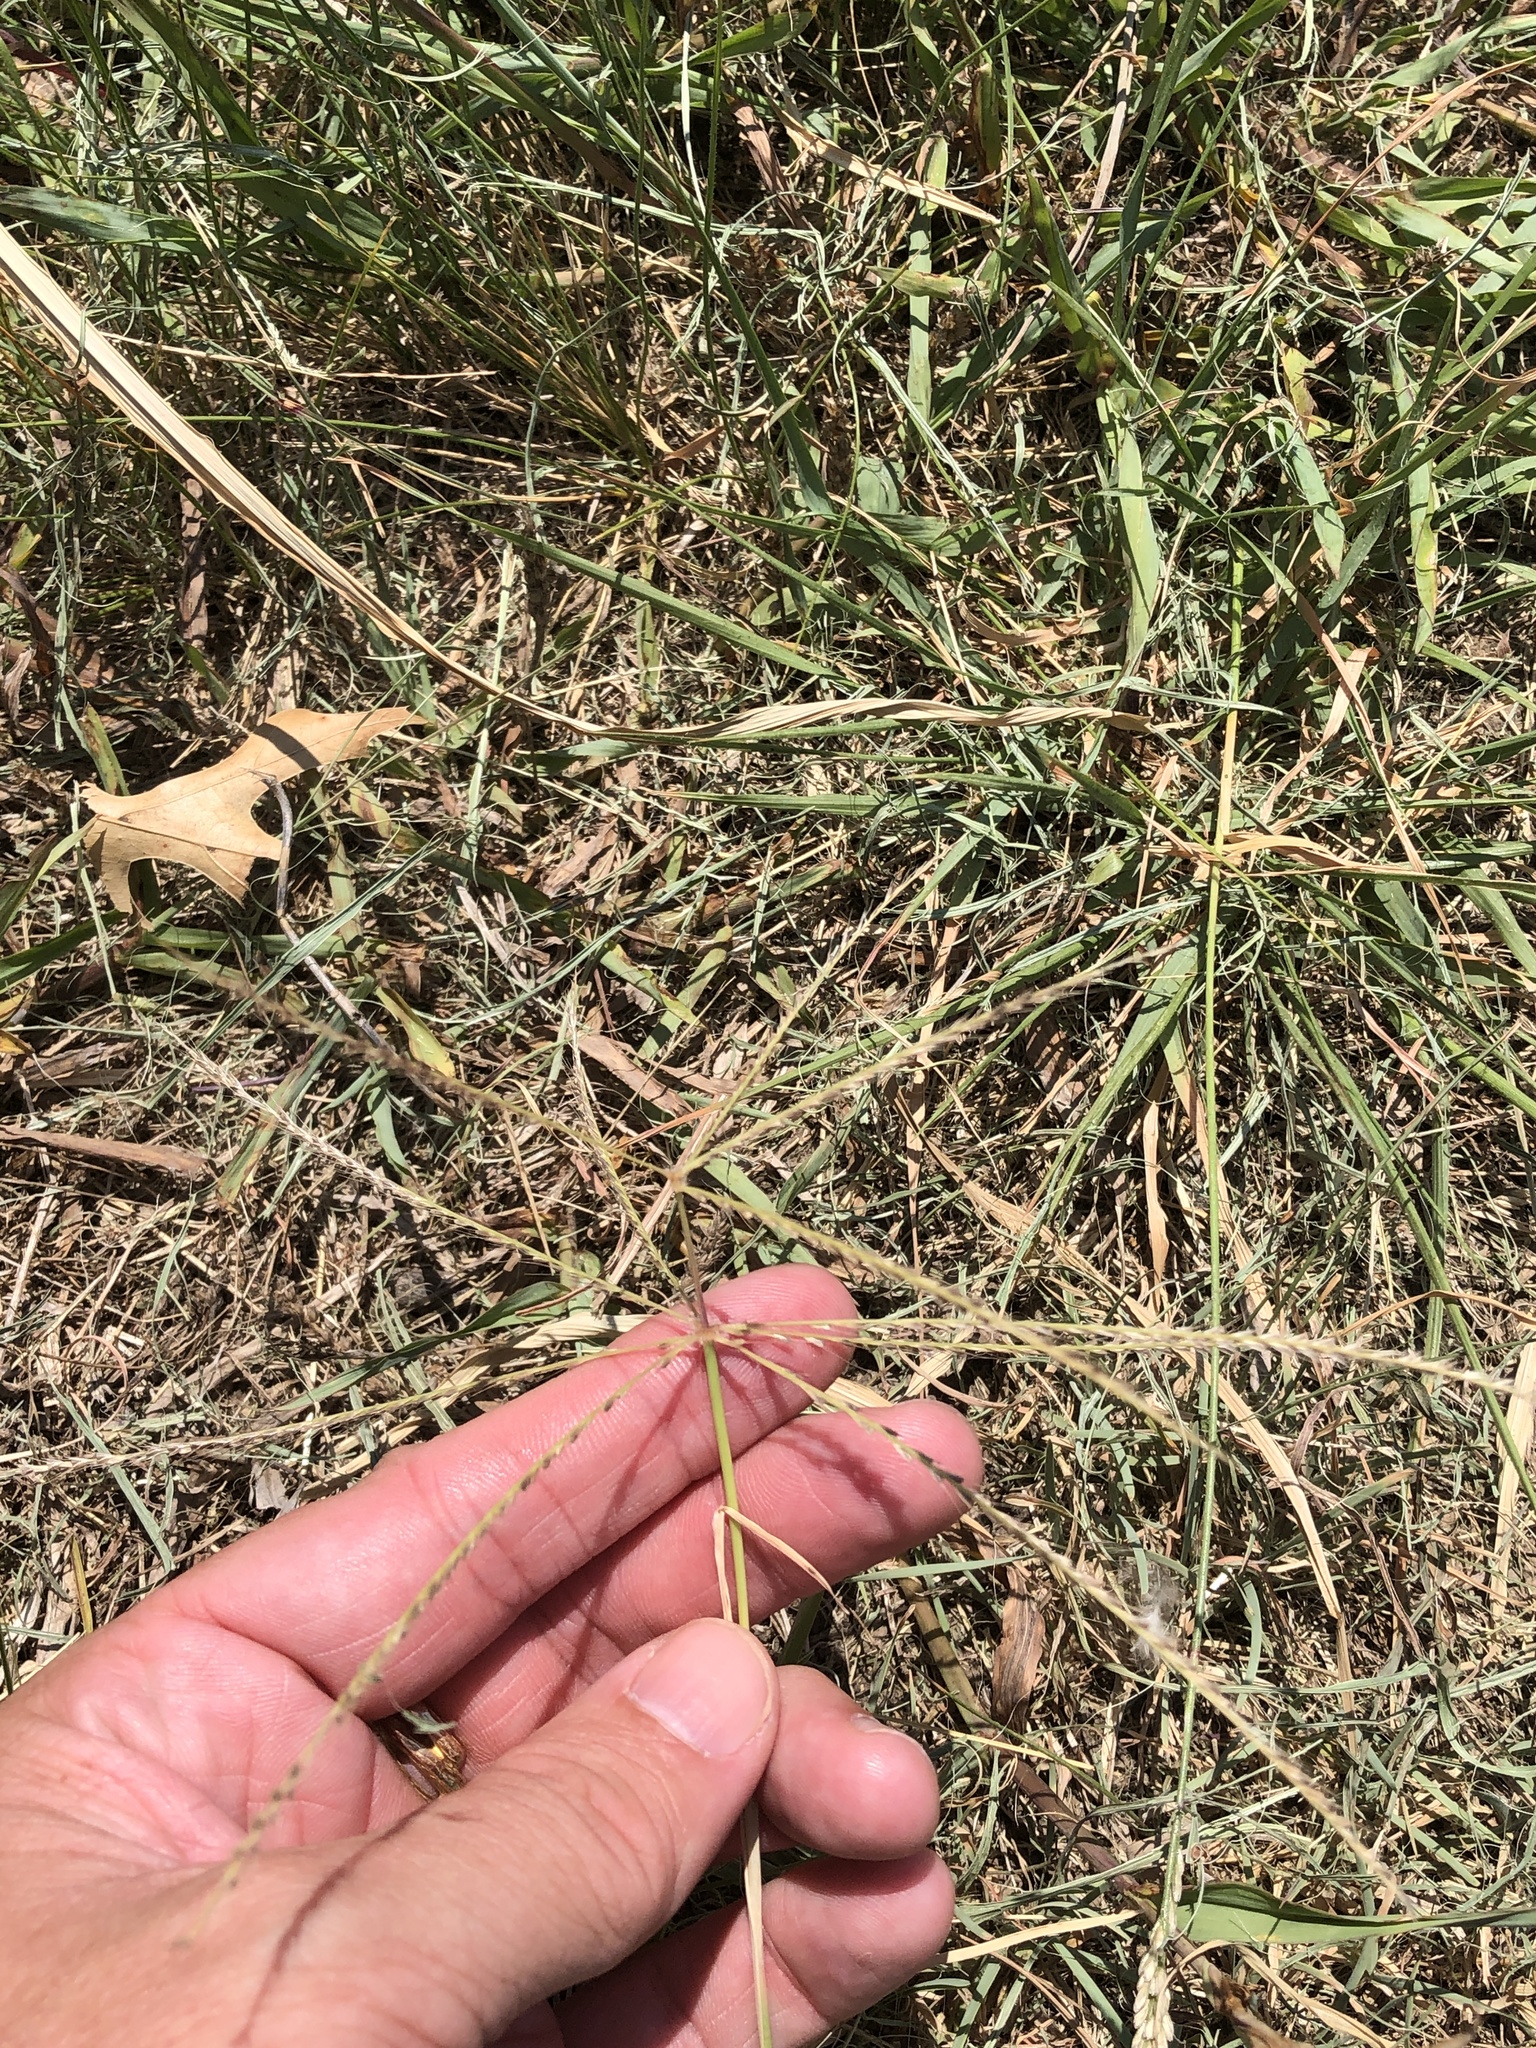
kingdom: Plantae
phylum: Tracheophyta
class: Liliopsida
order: Poales
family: Poaceae
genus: Chloris
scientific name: Chloris verticillata
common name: Tumble windmill grass
